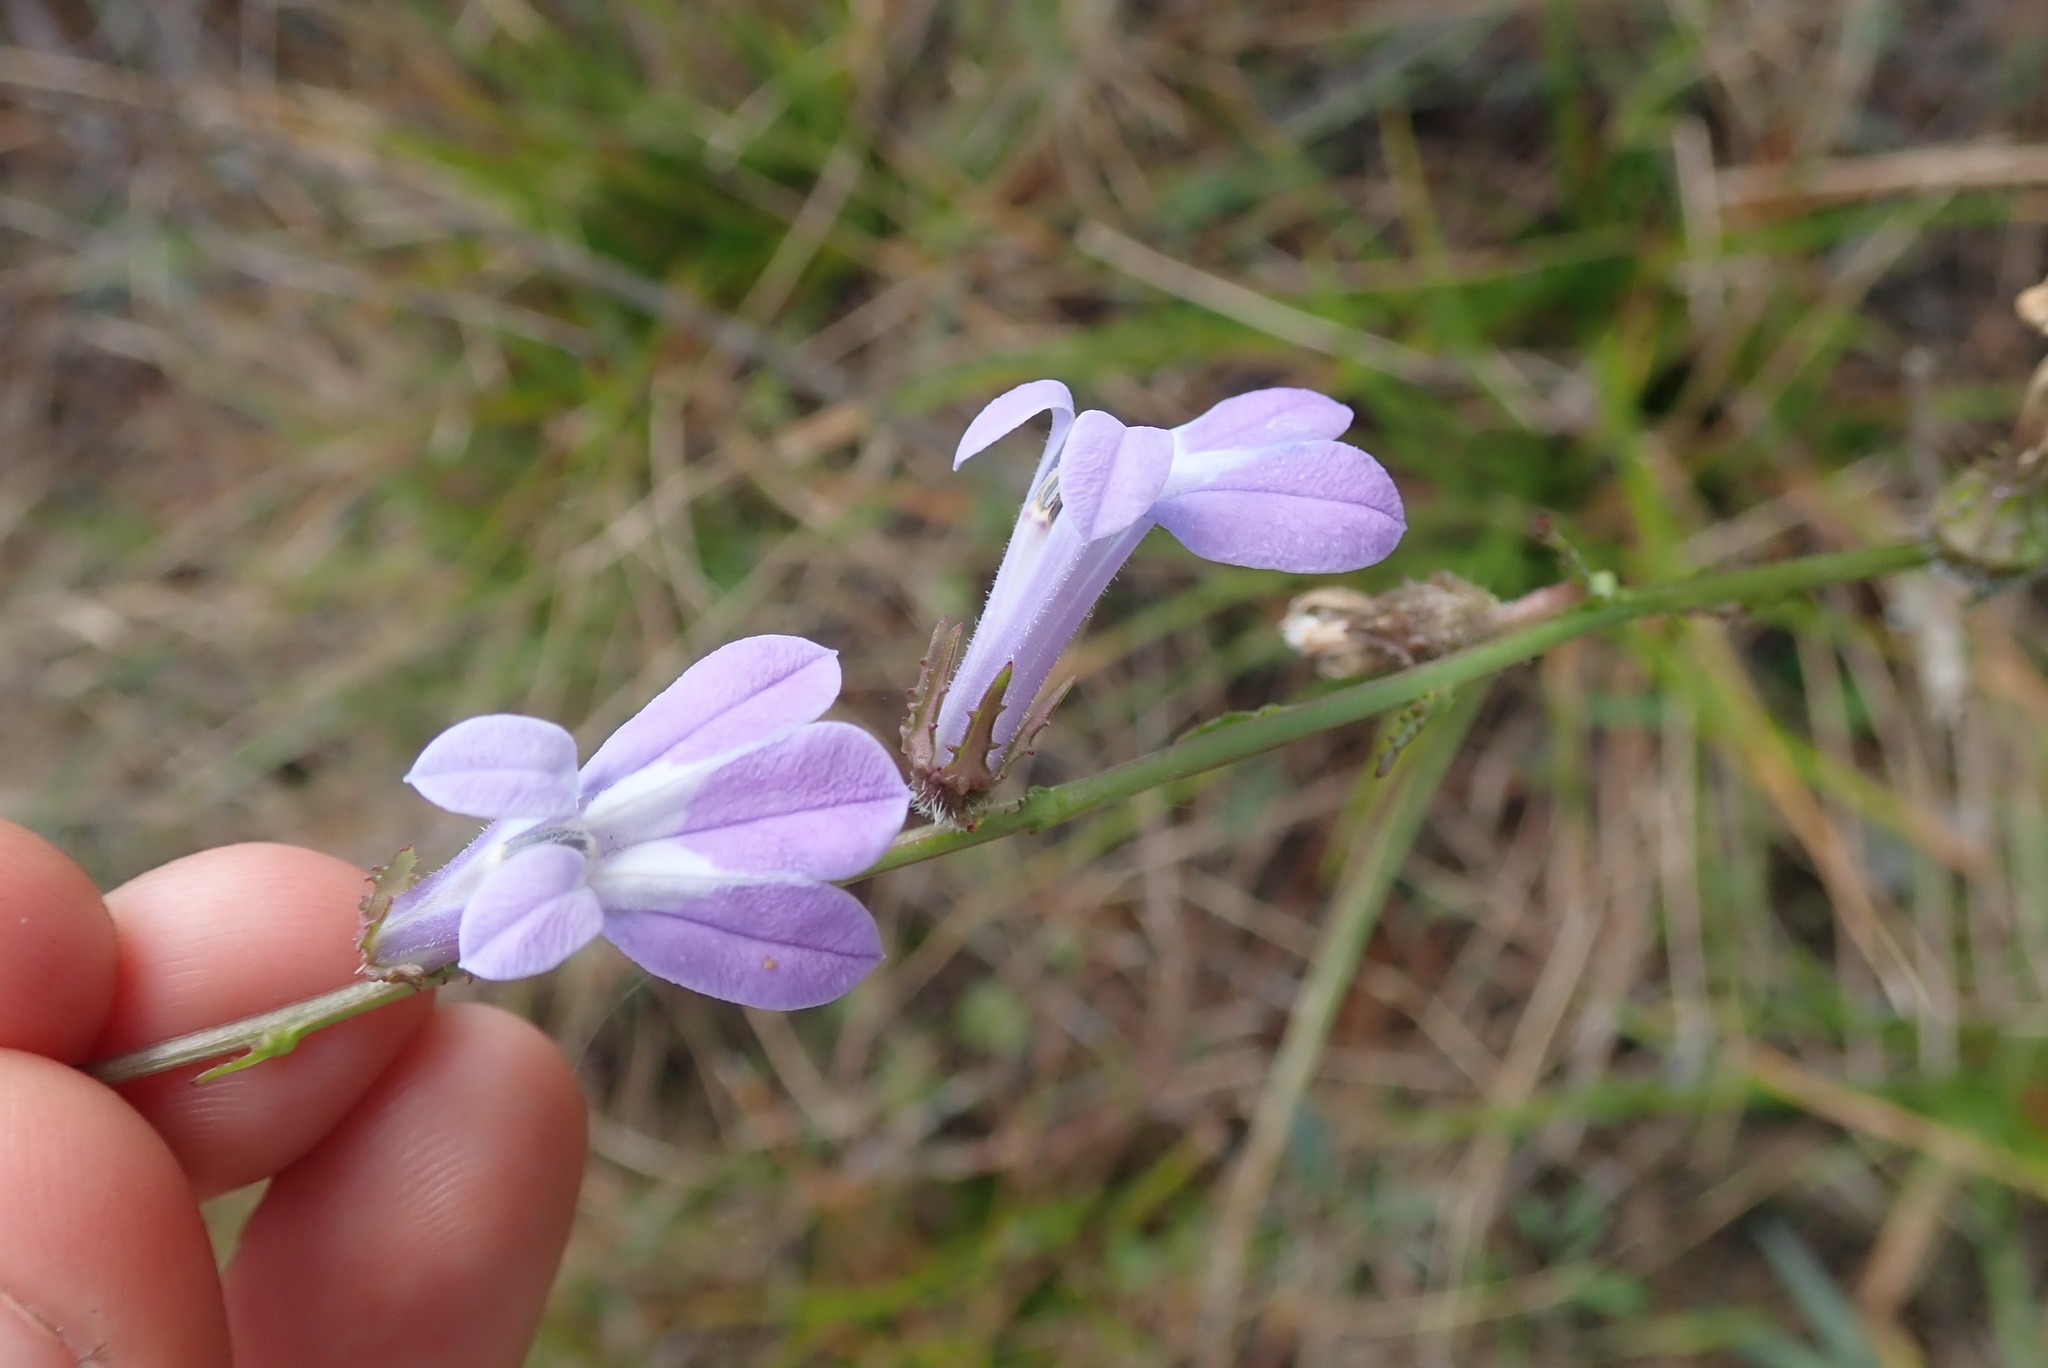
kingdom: Plantae
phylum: Tracheophyta
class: Magnoliopsida
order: Asterales
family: Campanulaceae
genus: Lobelia
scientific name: Lobelia glandulosa
